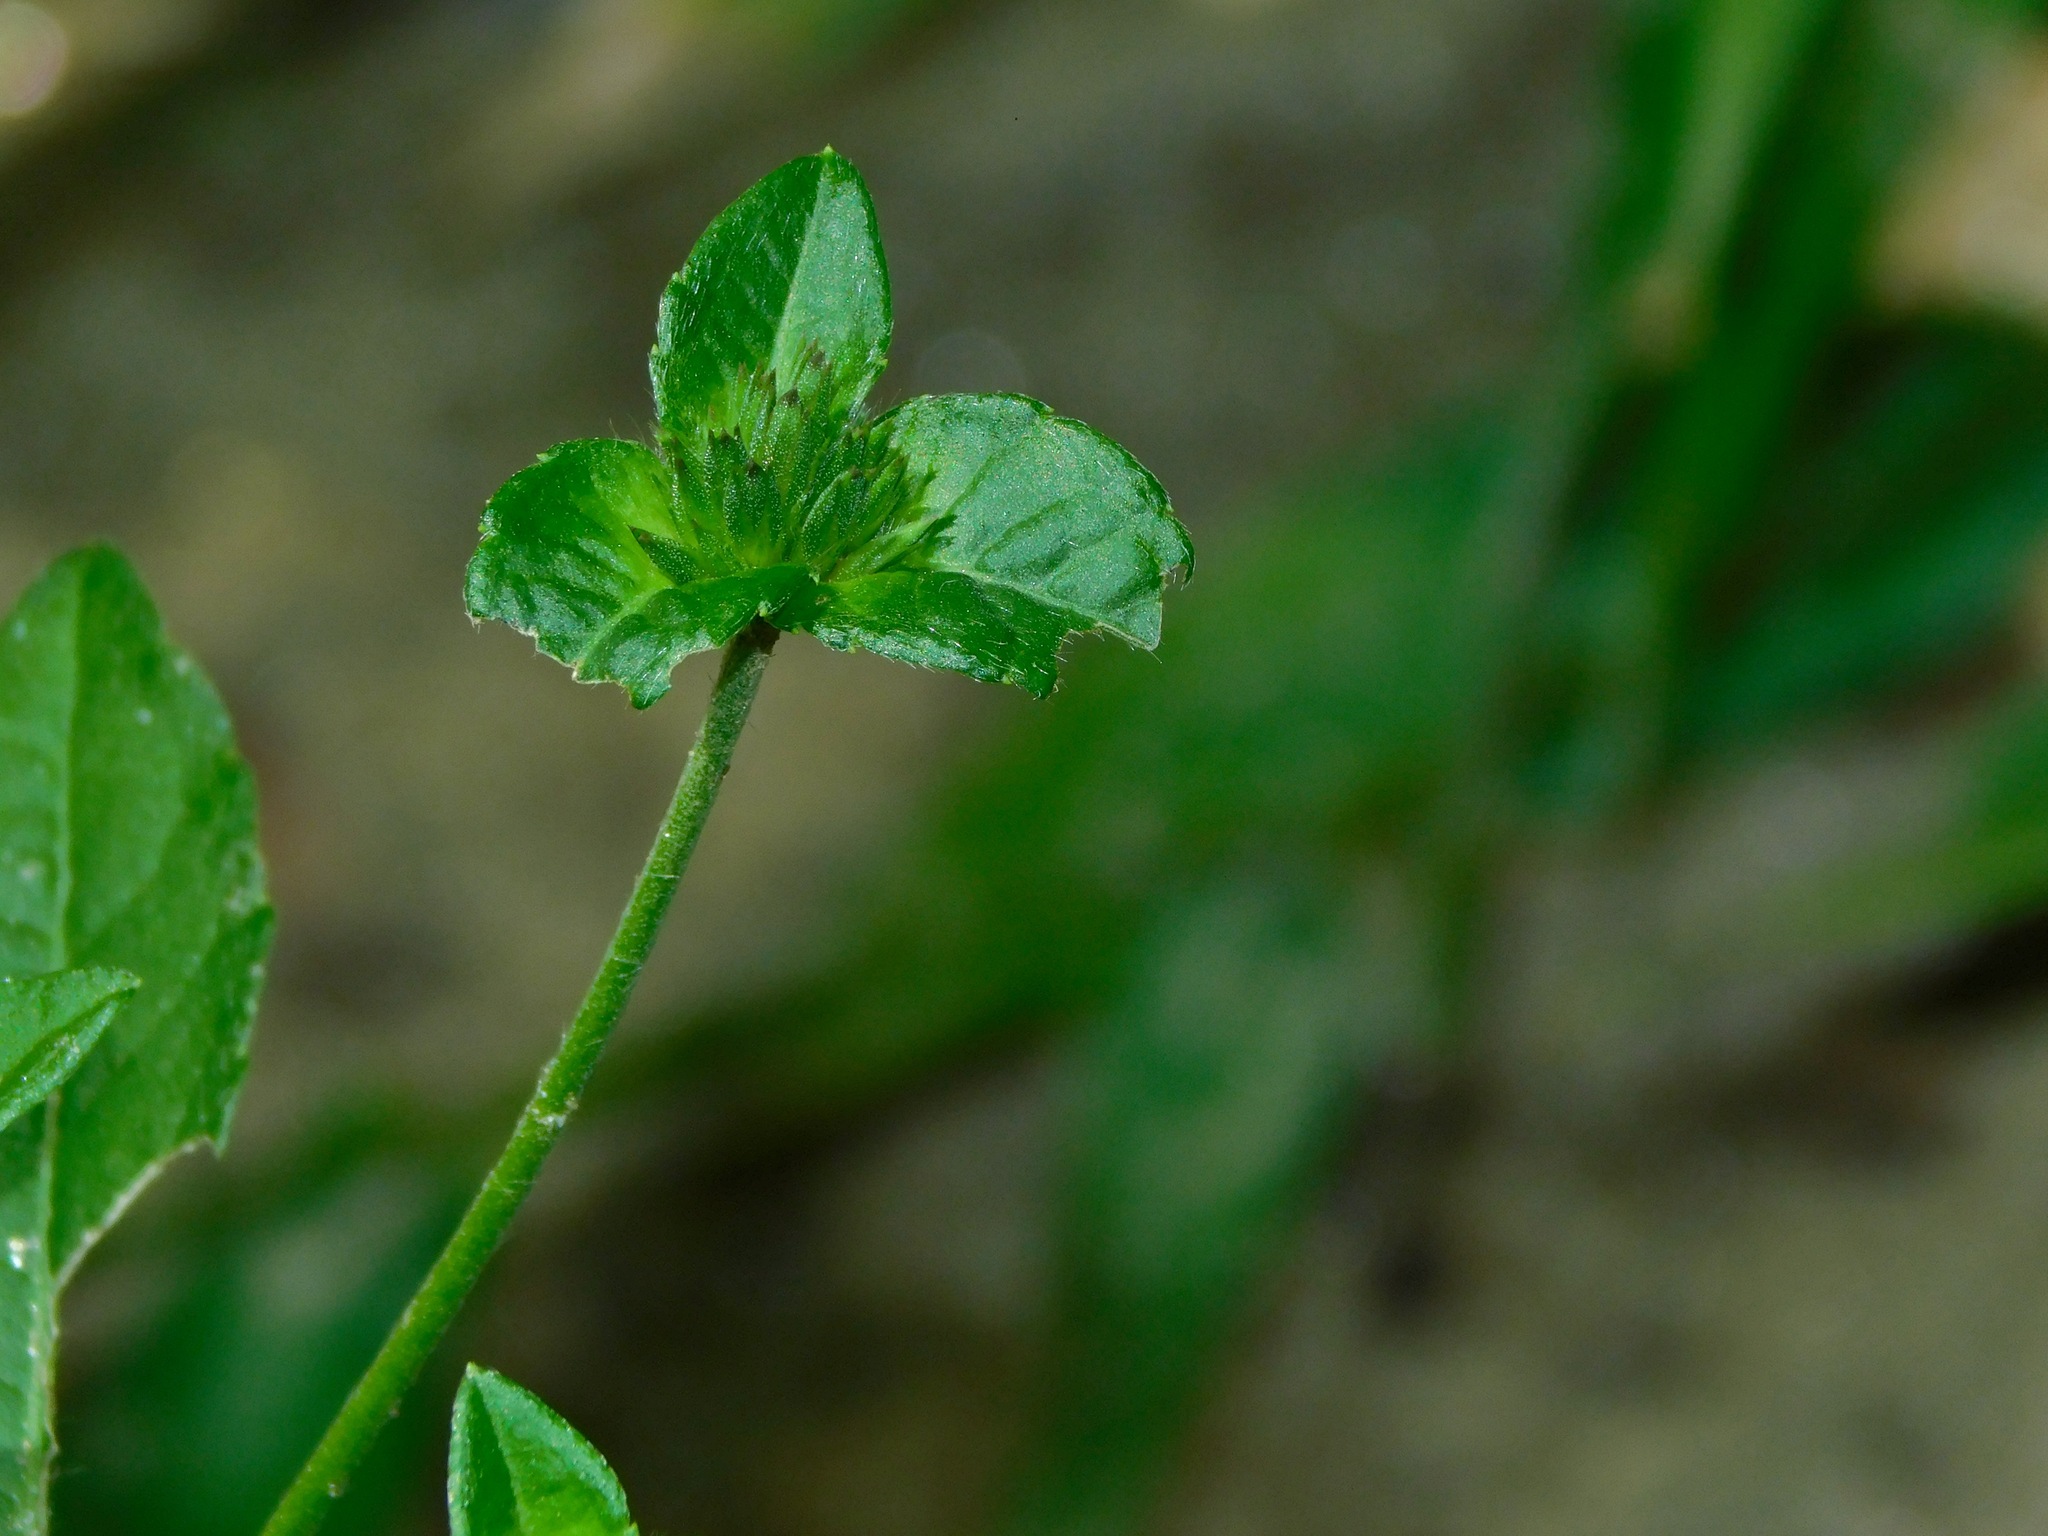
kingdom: Plantae
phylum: Tracheophyta
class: Magnoliopsida
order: Asterales
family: Asteraceae
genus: Elephantopus
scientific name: Elephantopus carolinianus
